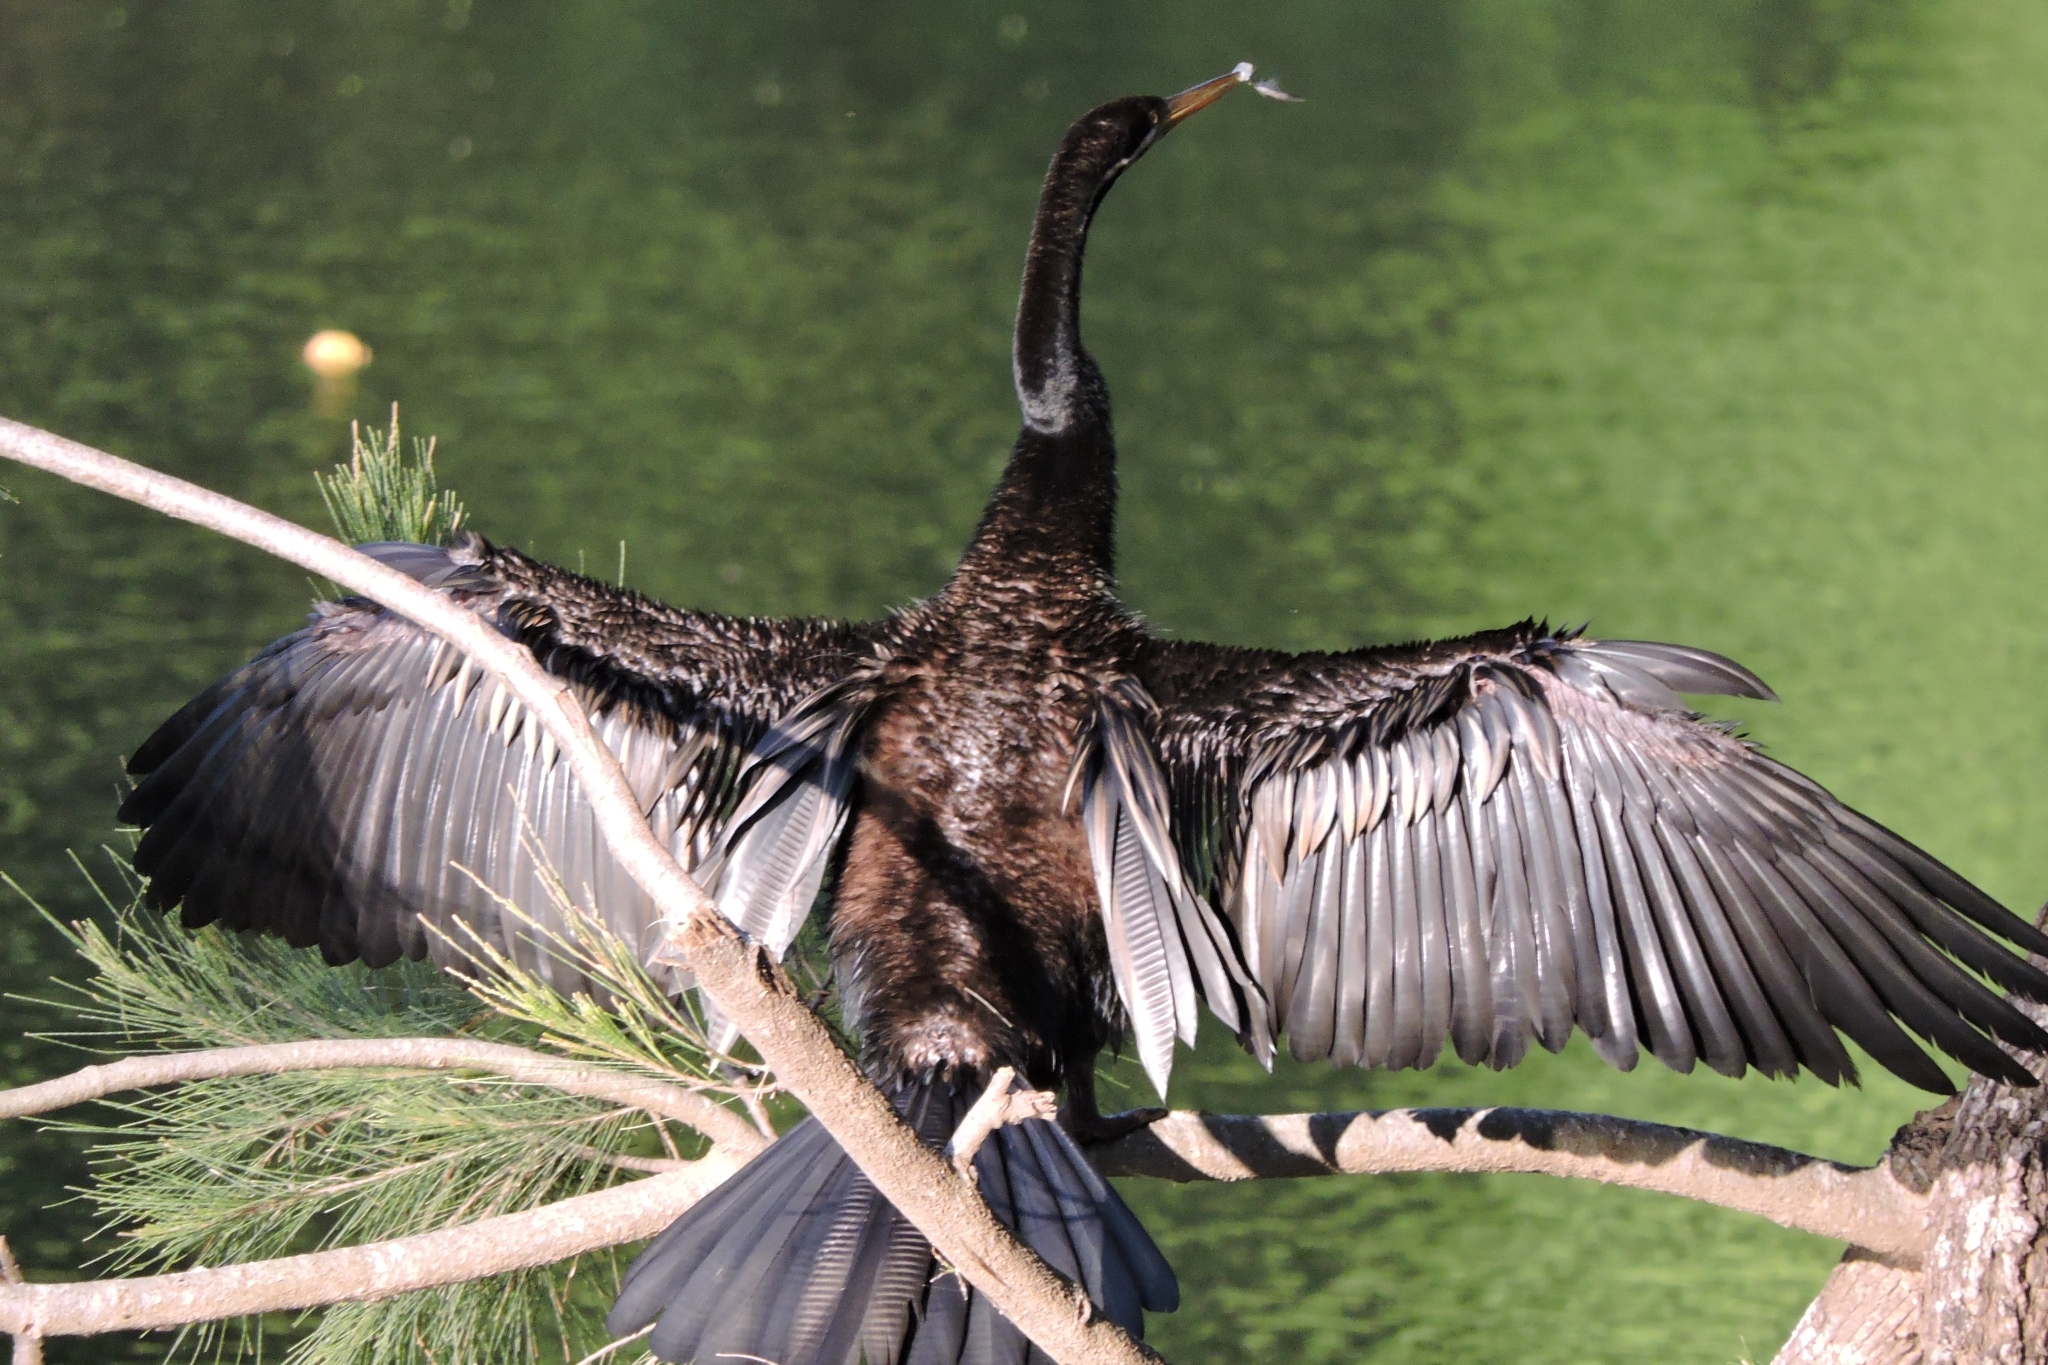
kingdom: Animalia
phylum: Chordata
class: Aves
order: Suliformes
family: Anhingidae
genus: Anhinga
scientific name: Anhinga novaehollandiae
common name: Australasian darter
